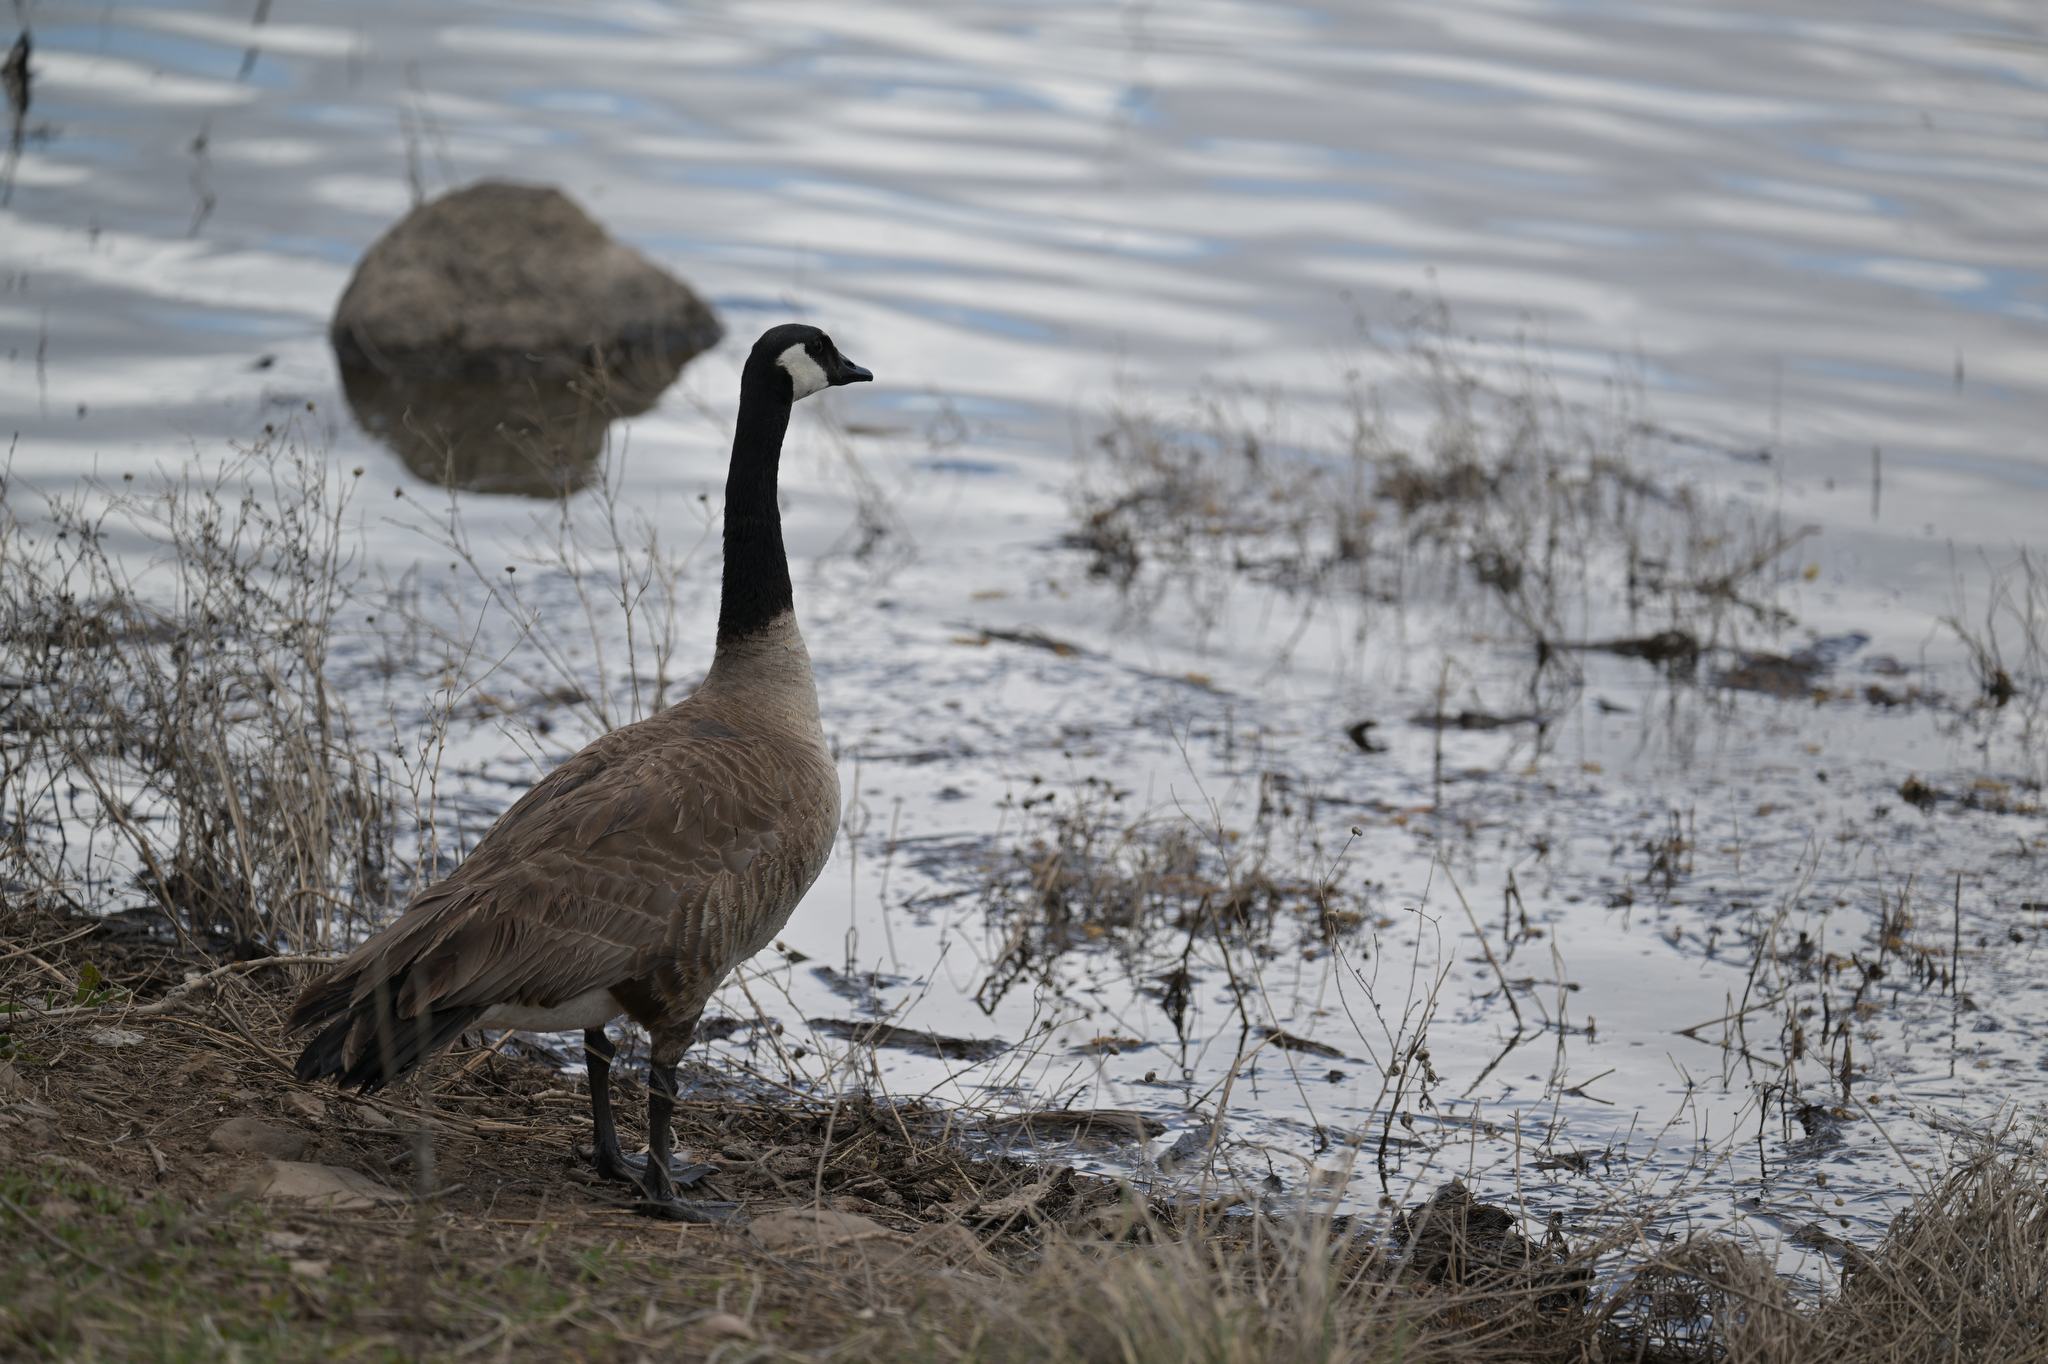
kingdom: Animalia
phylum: Chordata
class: Aves
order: Anseriformes
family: Anatidae
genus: Branta
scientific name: Branta canadensis
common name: Canada goose
